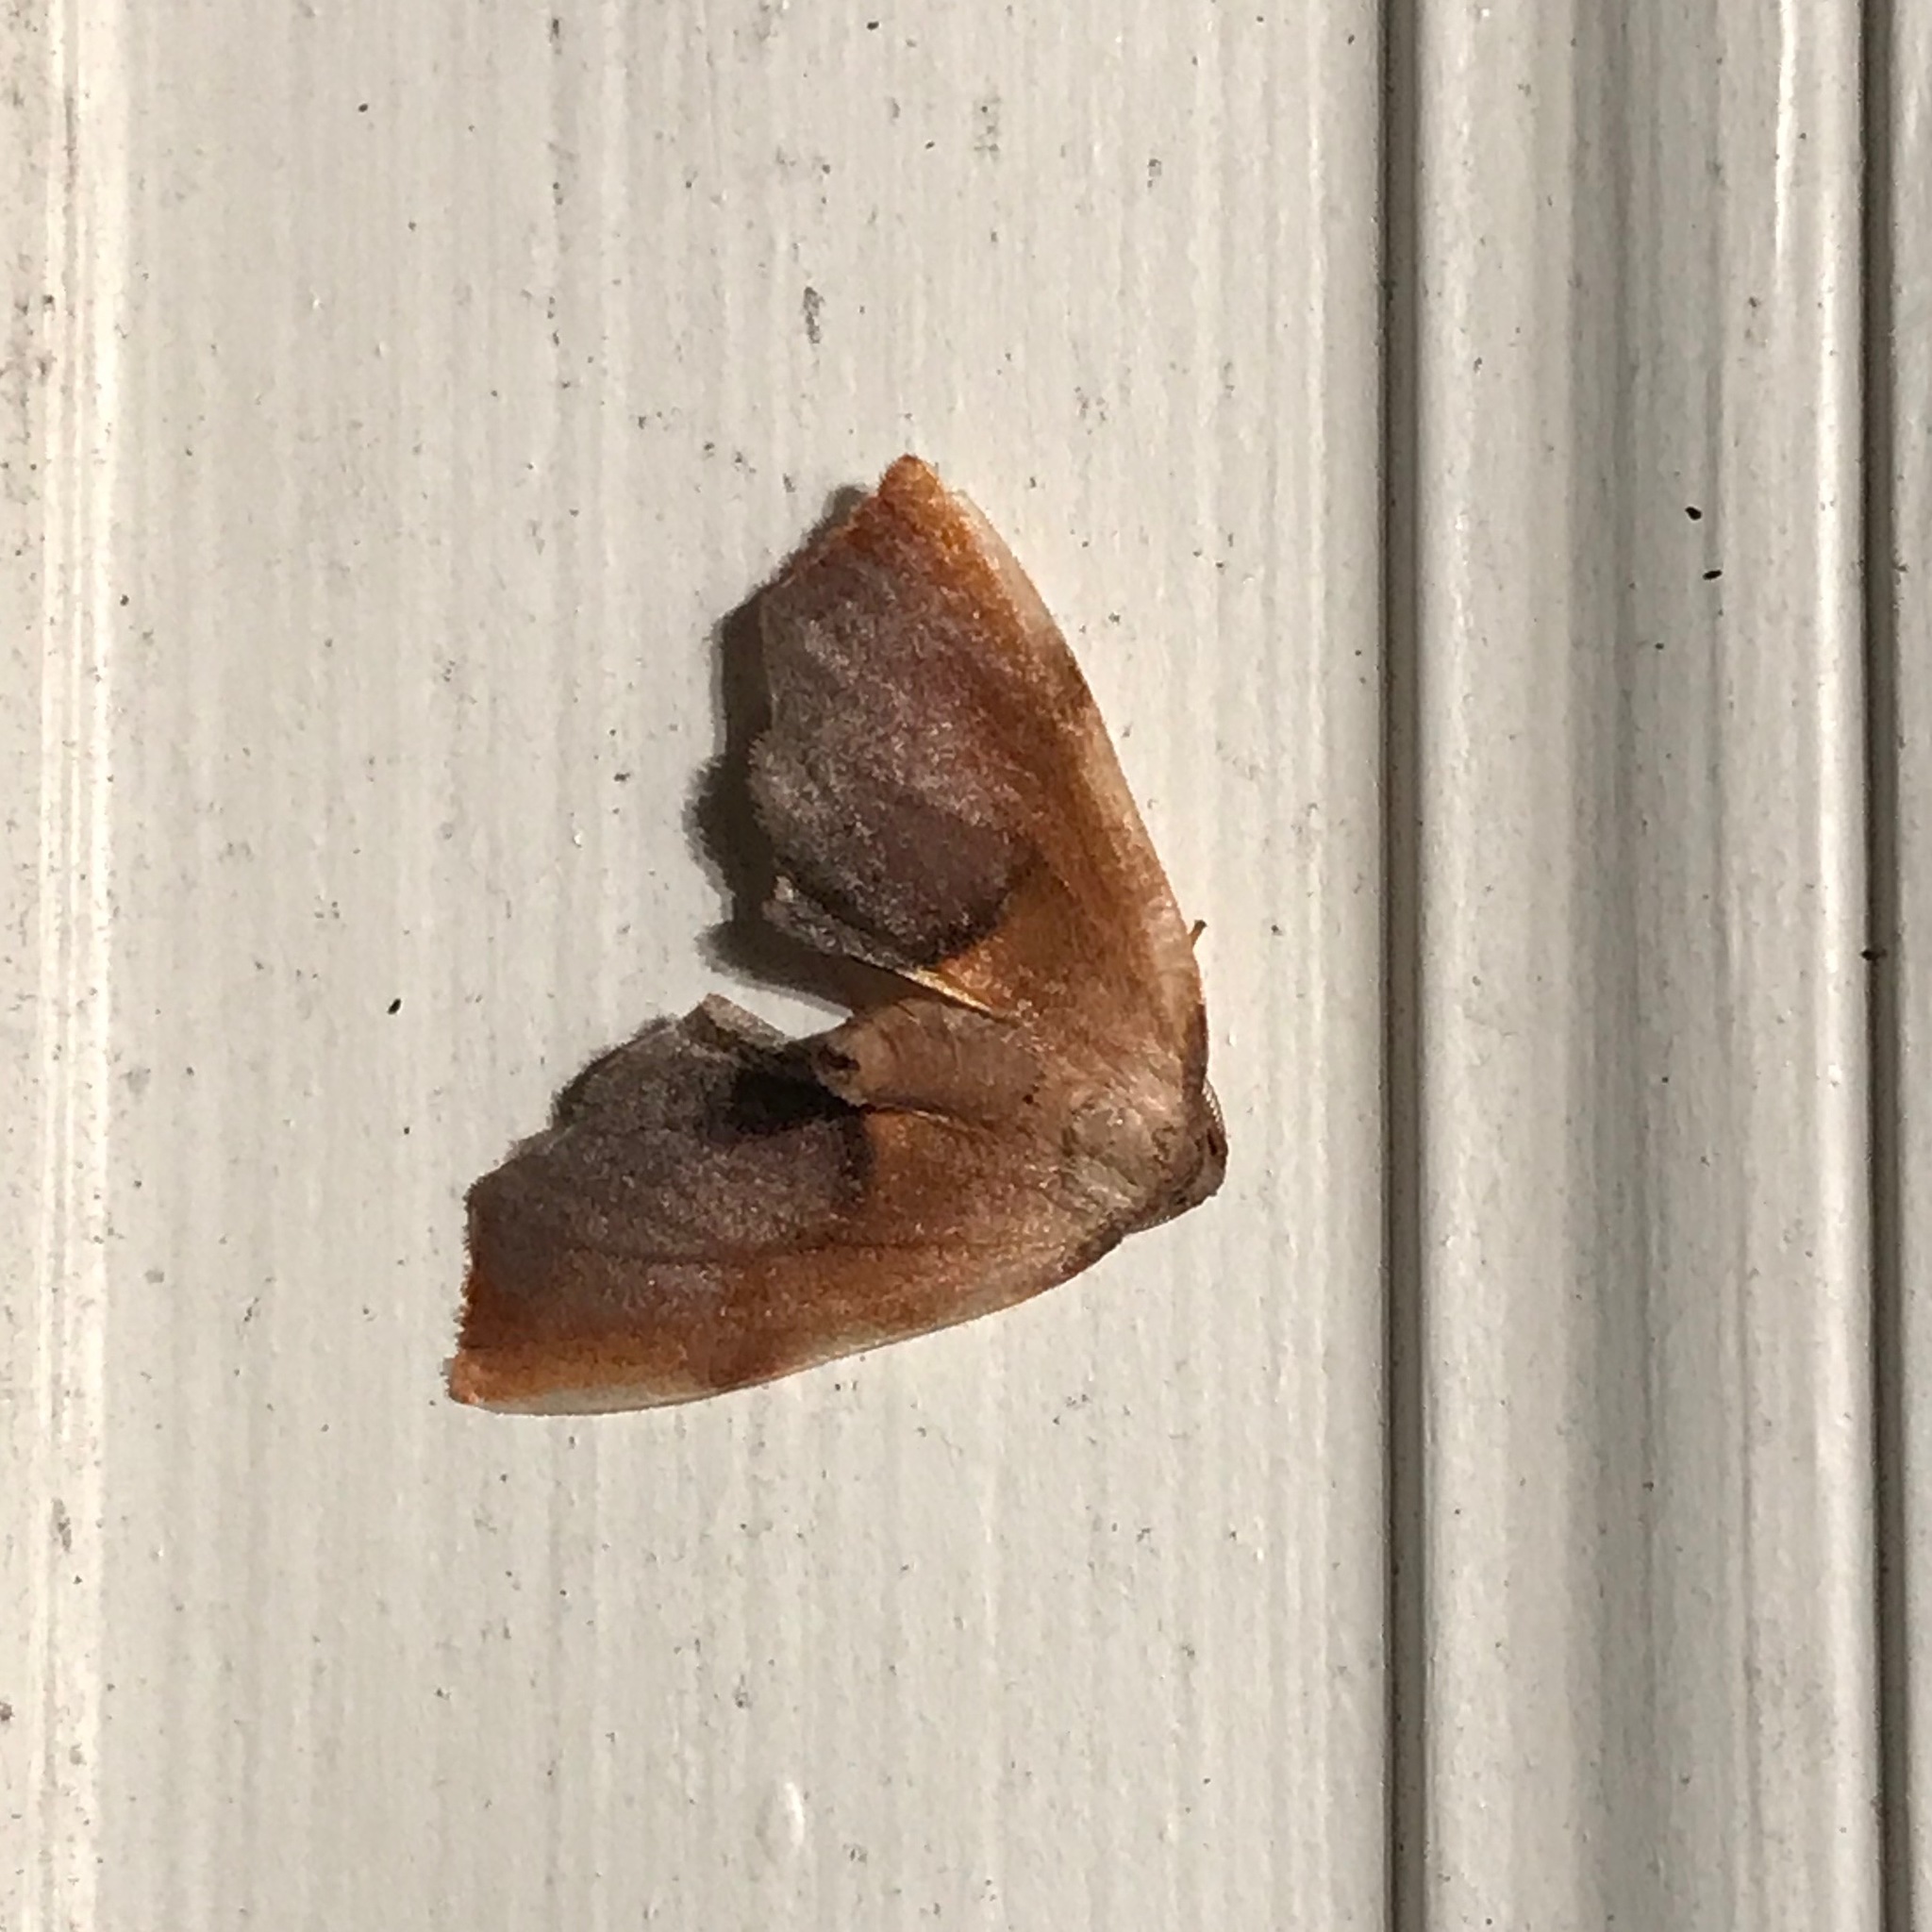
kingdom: Animalia
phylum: Arthropoda
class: Insecta
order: Lepidoptera
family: Geometridae
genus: Plagodis
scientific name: Plagodis kuetzingi
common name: Purple plagodis
